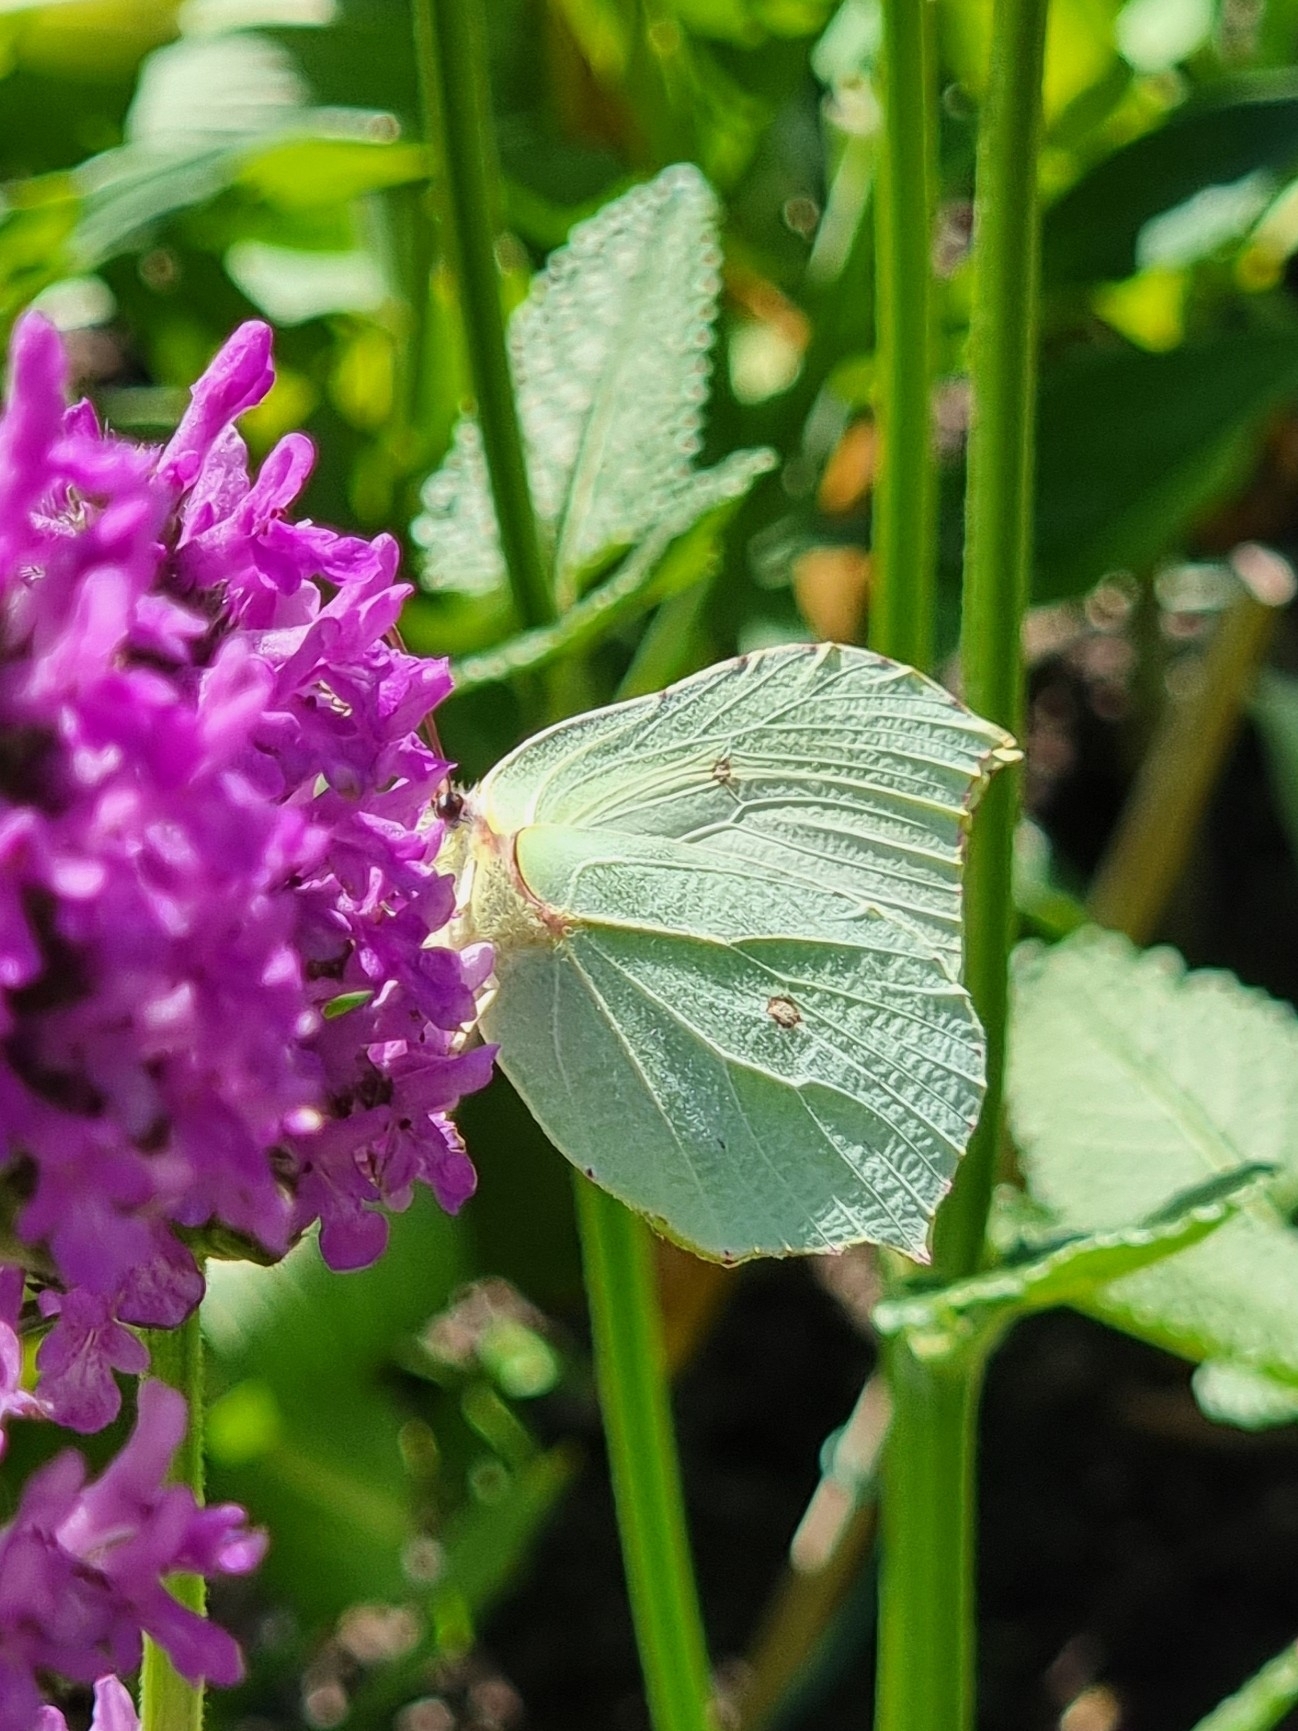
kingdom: Animalia
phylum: Arthropoda
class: Insecta
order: Lepidoptera
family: Pieridae
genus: Gonepteryx
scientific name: Gonepteryx rhamni
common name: Brimstone
